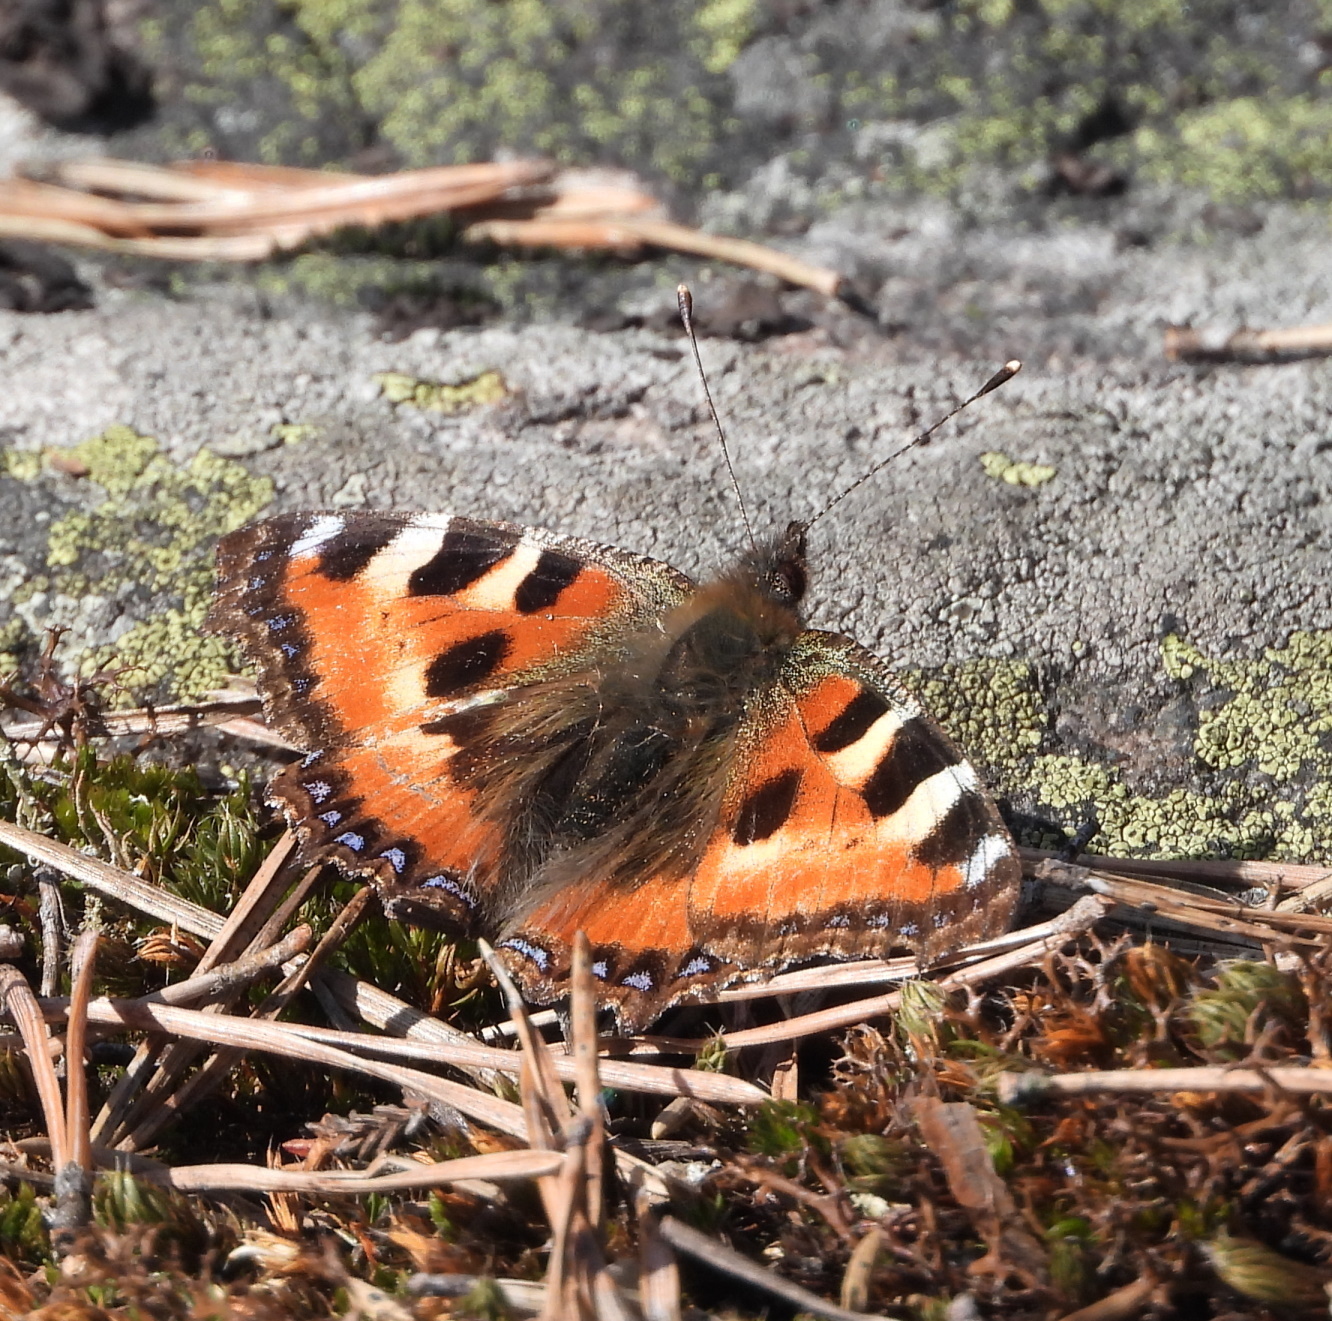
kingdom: Animalia
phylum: Arthropoda
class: Insecta
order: Lepidoptera
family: Nymphalidae
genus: Aglais
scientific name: Aglais urticae
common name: Small tortoiseshell
